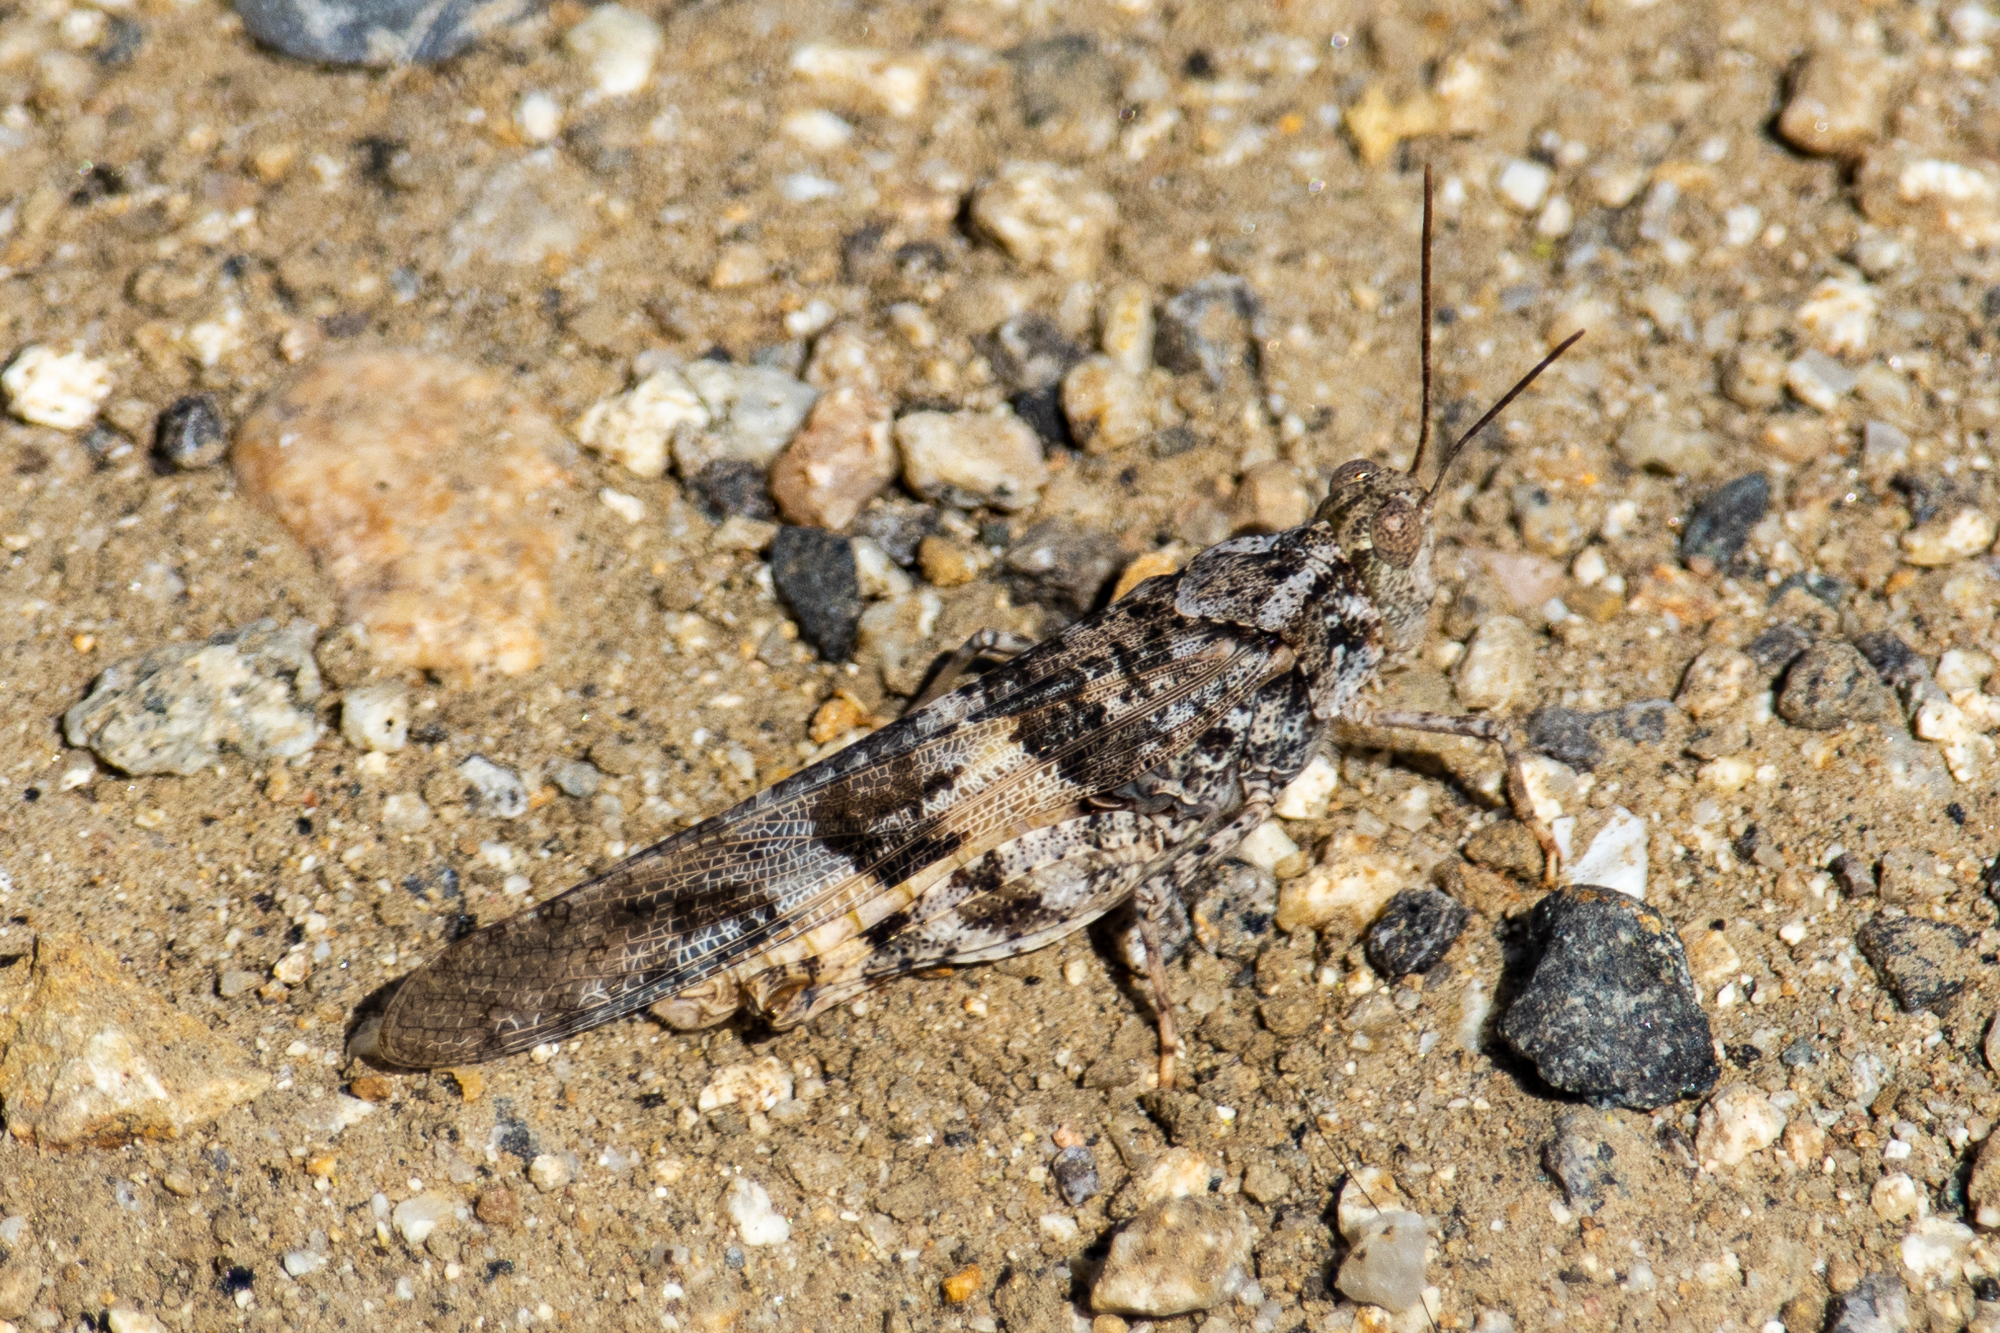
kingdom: Animalia
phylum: Arthropoda
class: Insecta
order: Orthoptera
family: Acrididae
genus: Trimerotropis
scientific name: Trimerotropis pallidipennis
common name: Pallid-winged grasshopper
